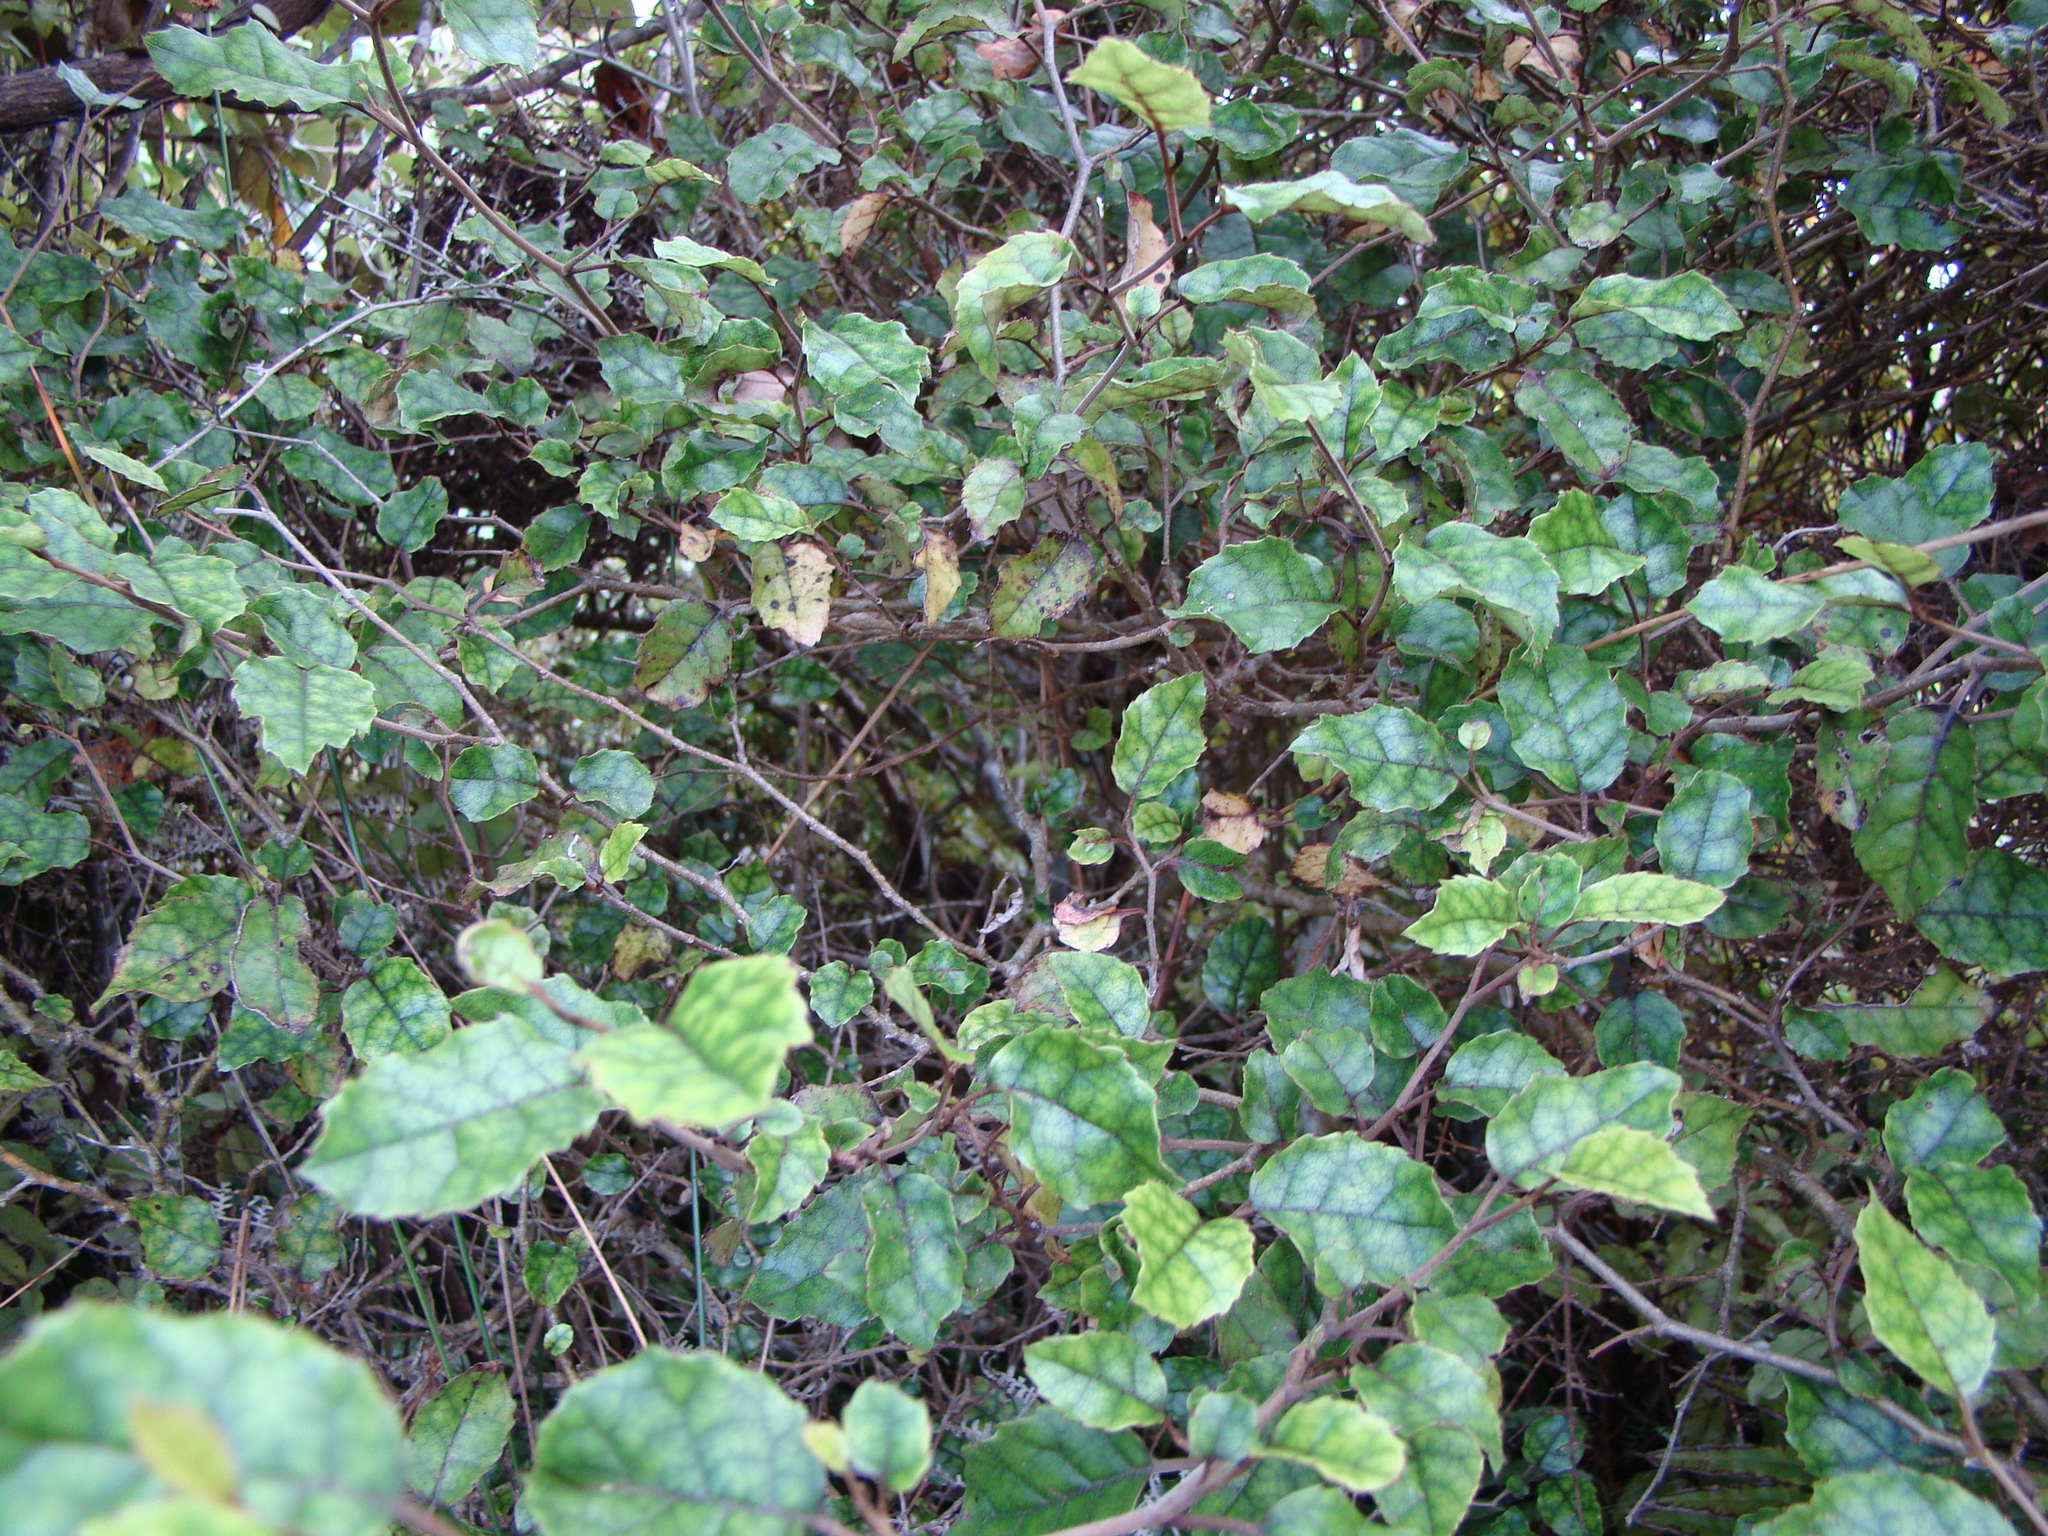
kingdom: Plantae
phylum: Tracheophyta
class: Magnoliopsida
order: Asterales
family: Rousseaceae
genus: Carpodetus
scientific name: Carpodetus serratus
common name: White mapau
